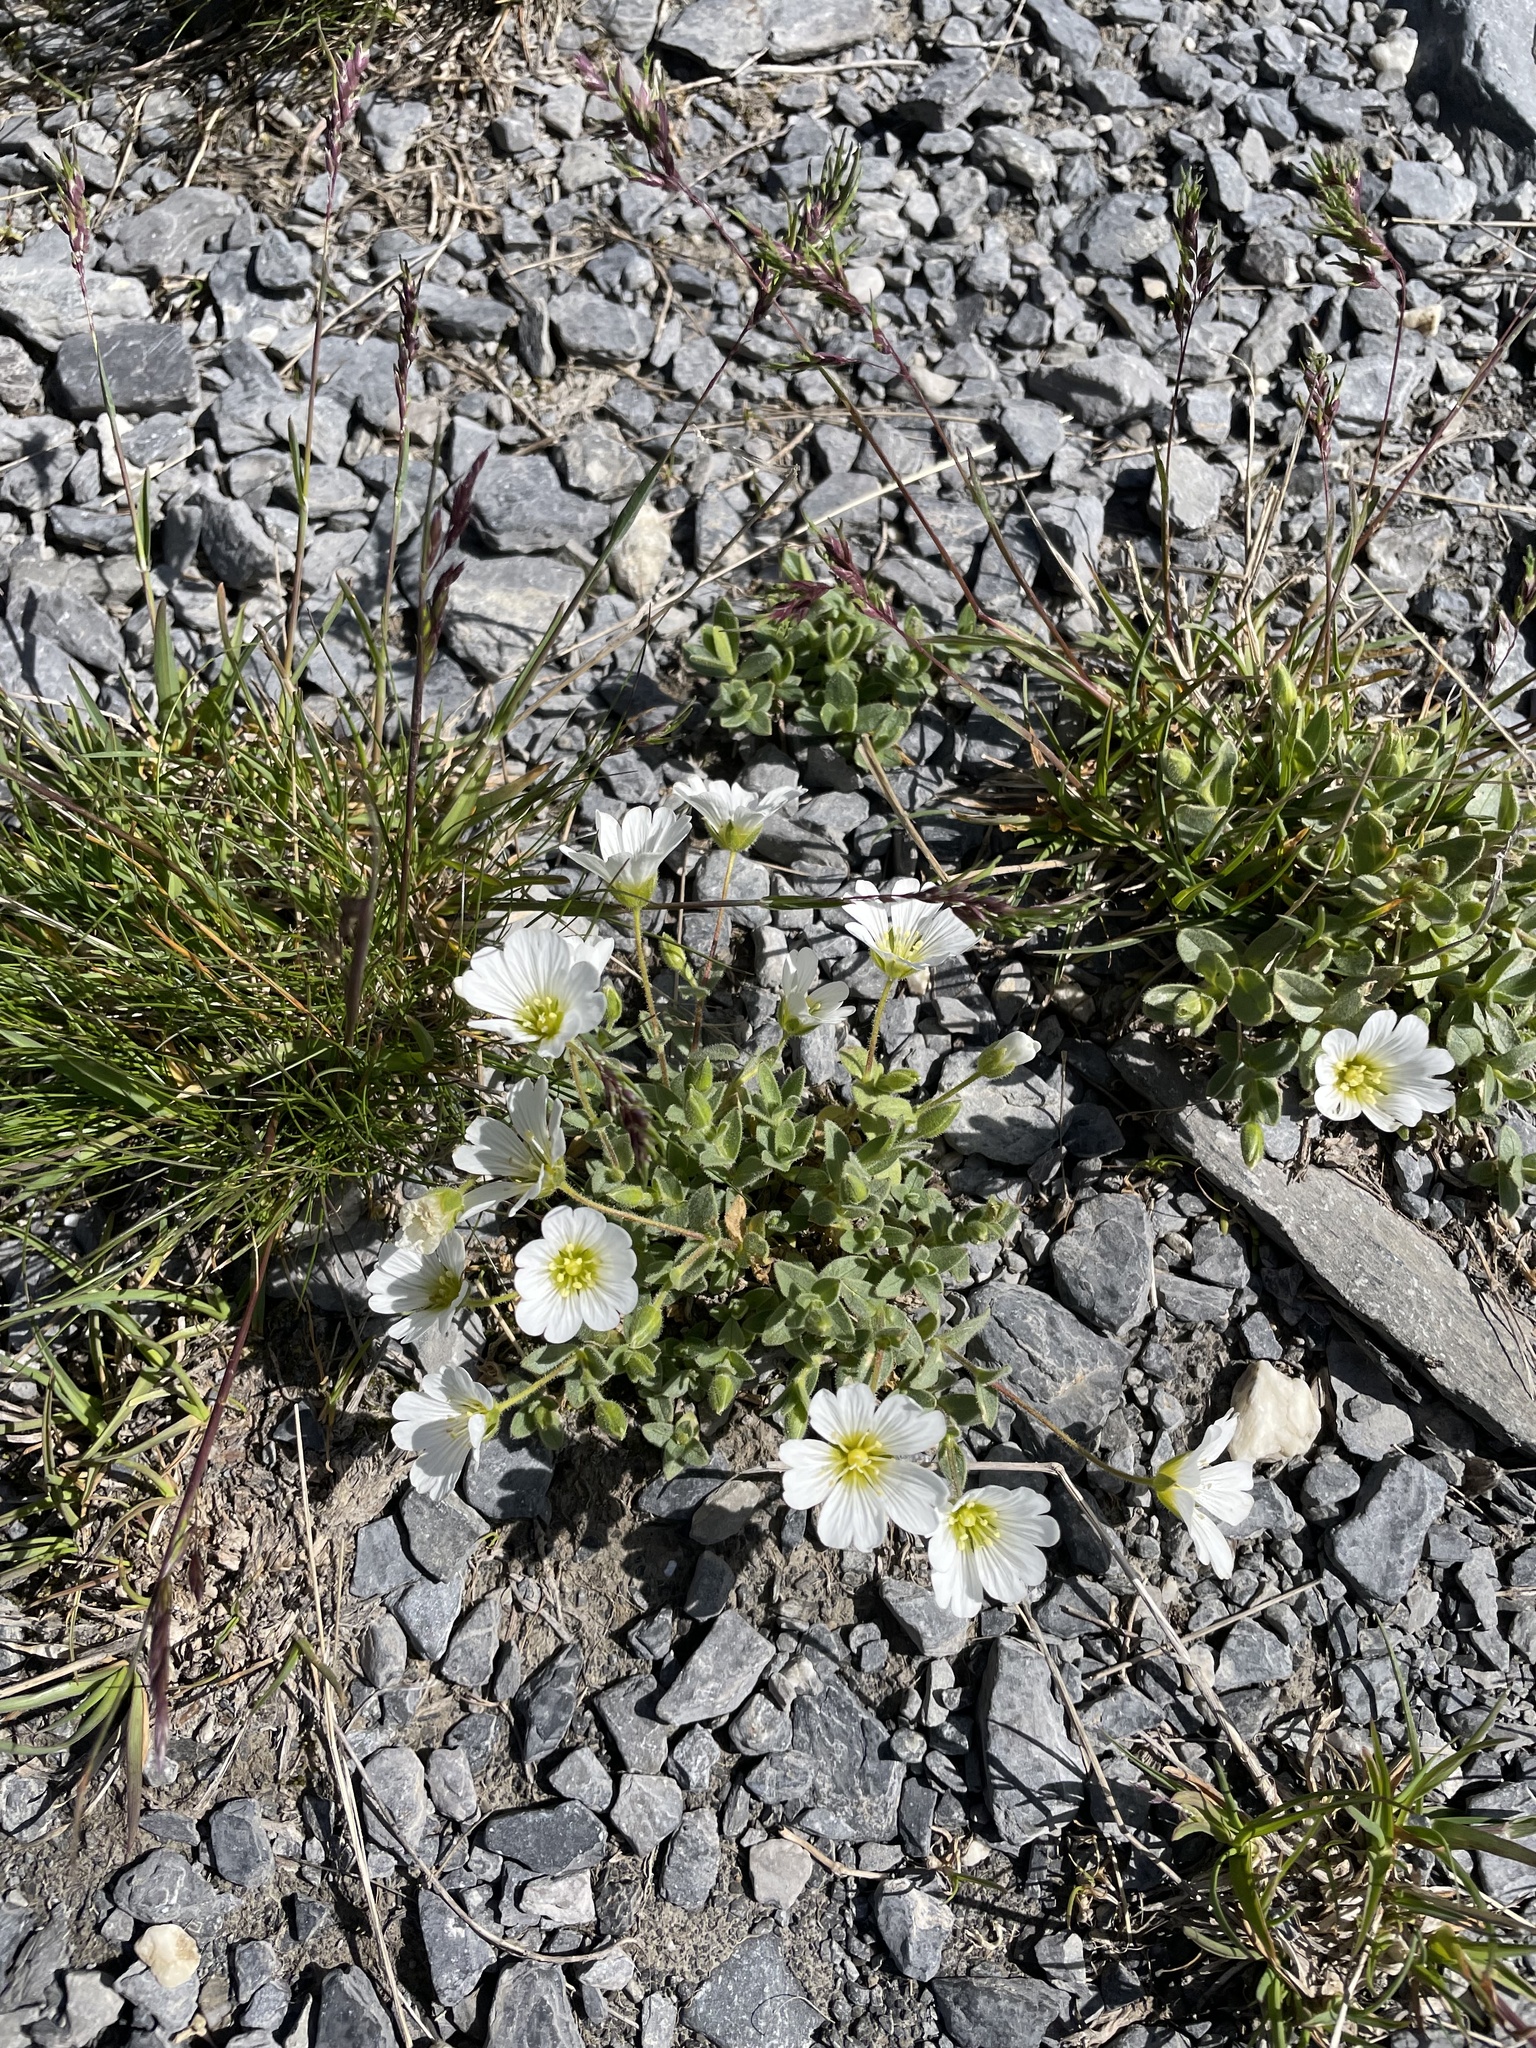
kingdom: Plantae
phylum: Tracheophyta
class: Magnoliopsida
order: Caryophyllales
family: Caryophyllaceae
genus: Cerastium
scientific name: Cerastium latifolium
